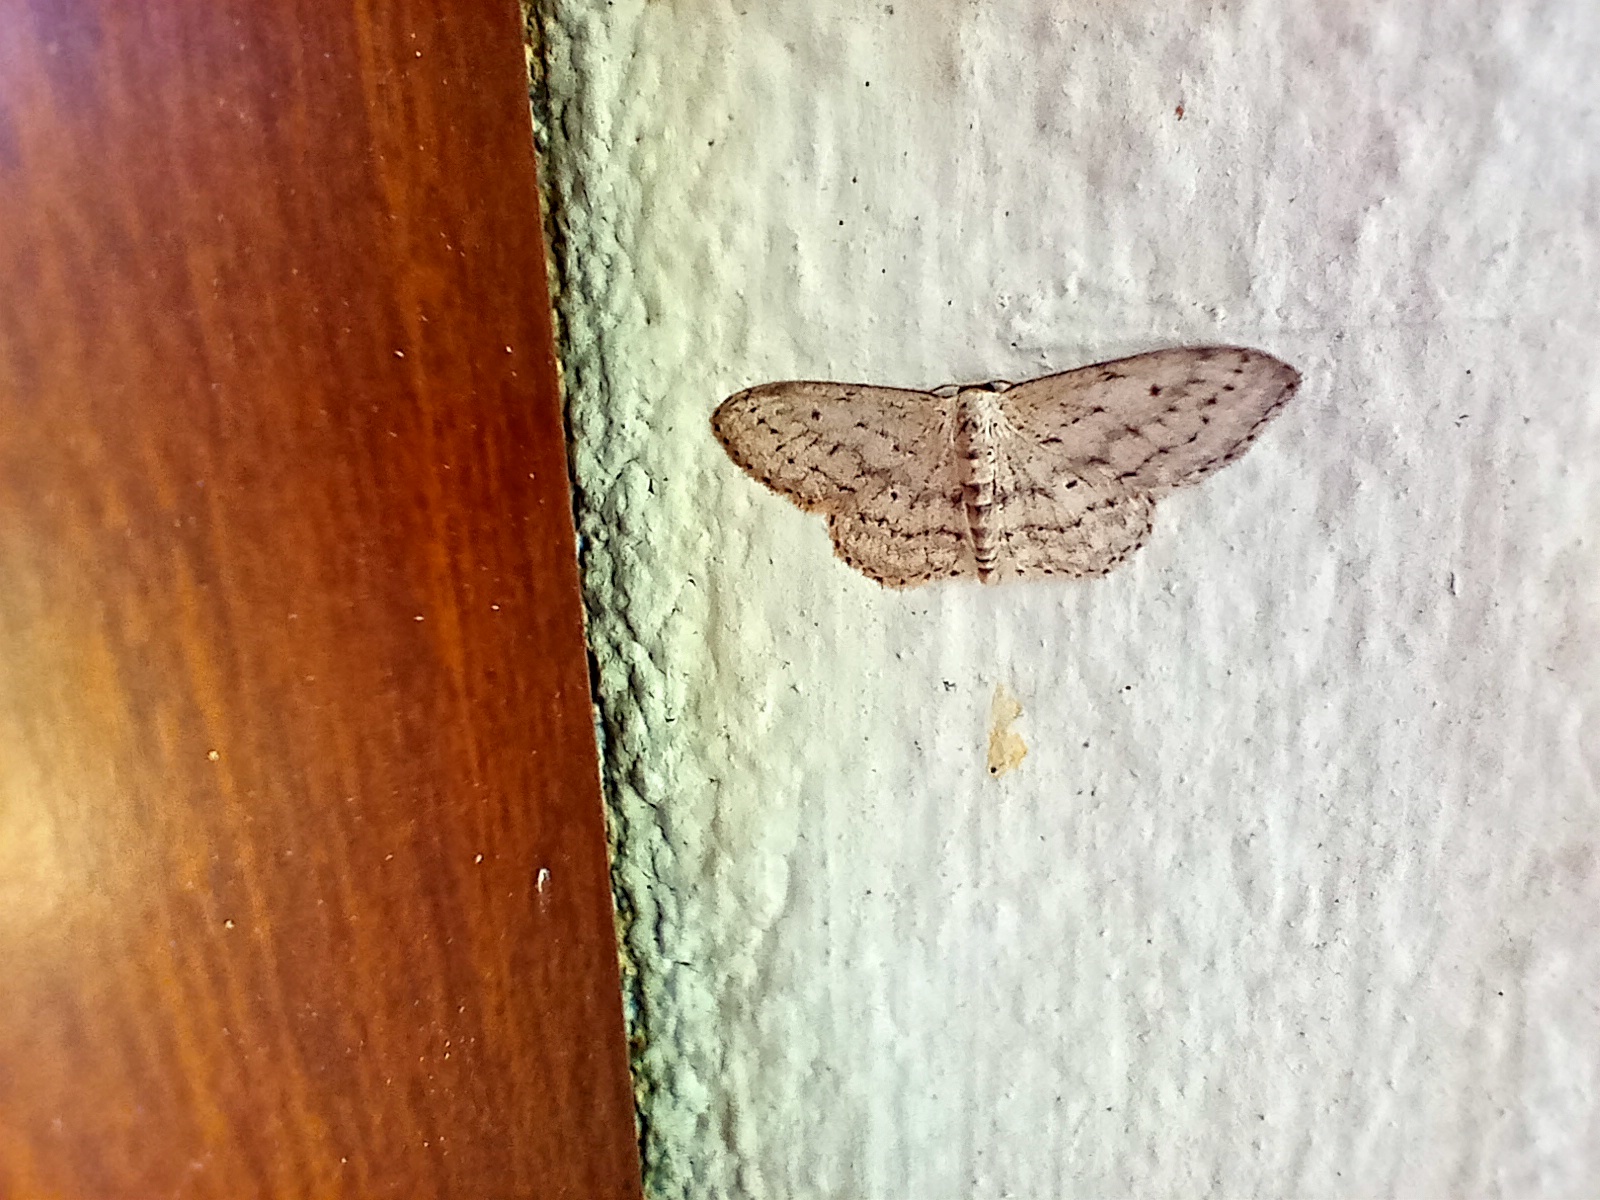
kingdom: Animalia
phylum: Arthropoda
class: Insecta
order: Lepidoptera
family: Geometridae
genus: Idaea
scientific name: Idaea seriata
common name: Small dusty wave
